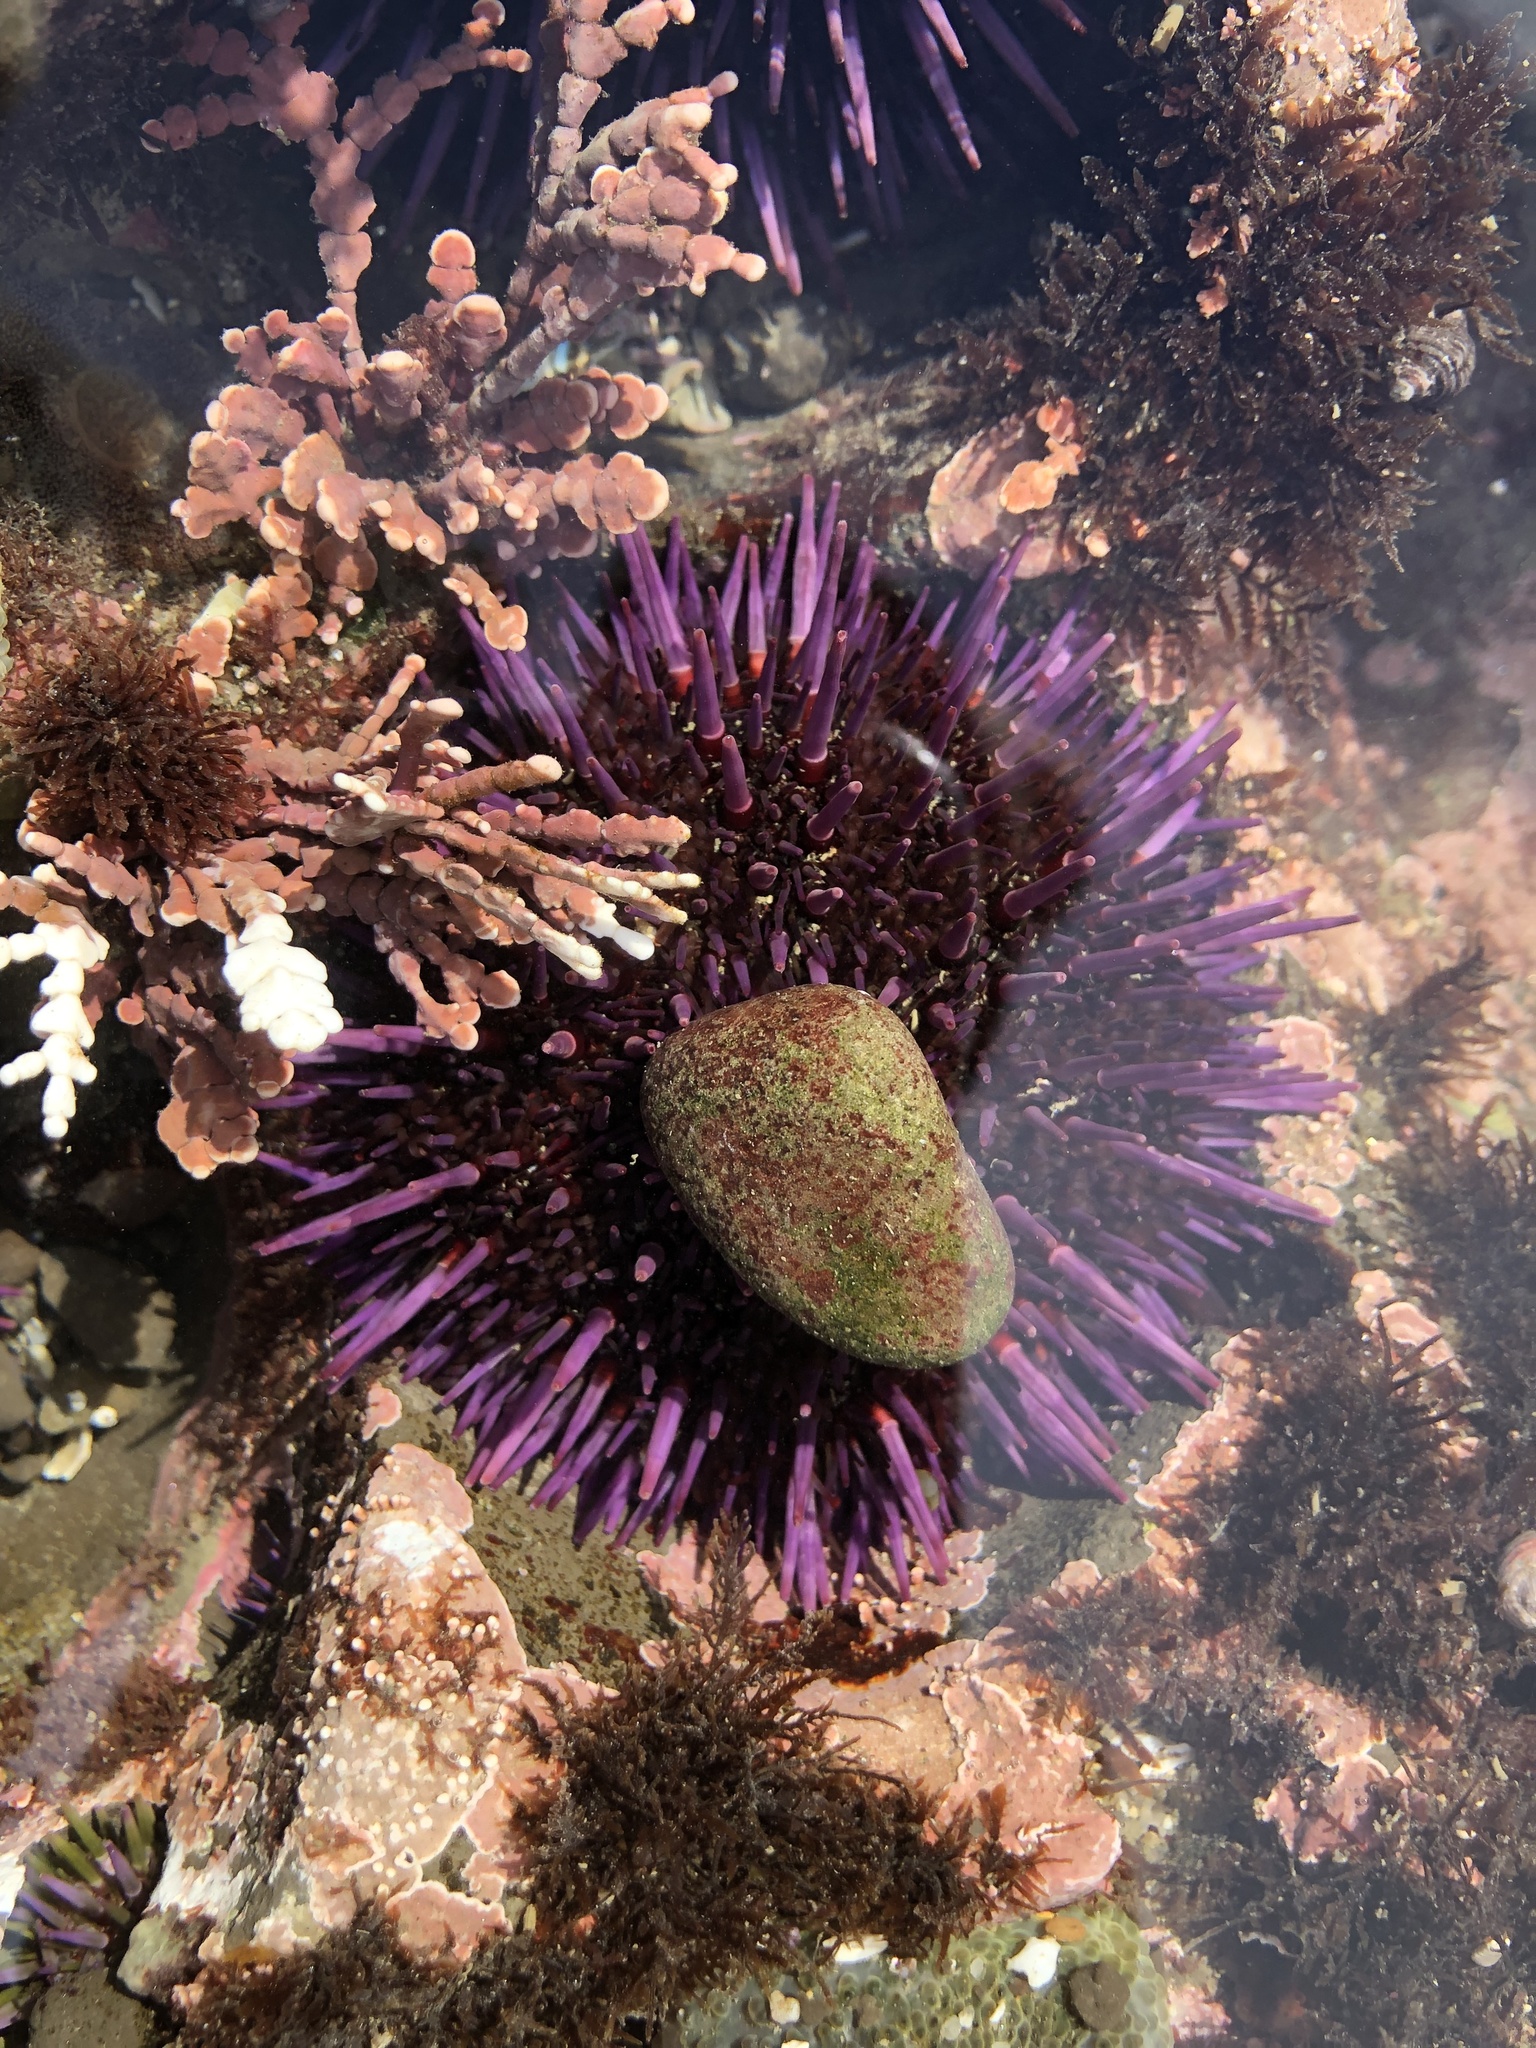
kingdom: Animalia
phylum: Echinodermata
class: Echinoidea
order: Camarodonta
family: Strongylocentrotidae
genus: Strongylocentrotus
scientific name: Strongylocentrotus purpuratus
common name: Purple sea urchin
